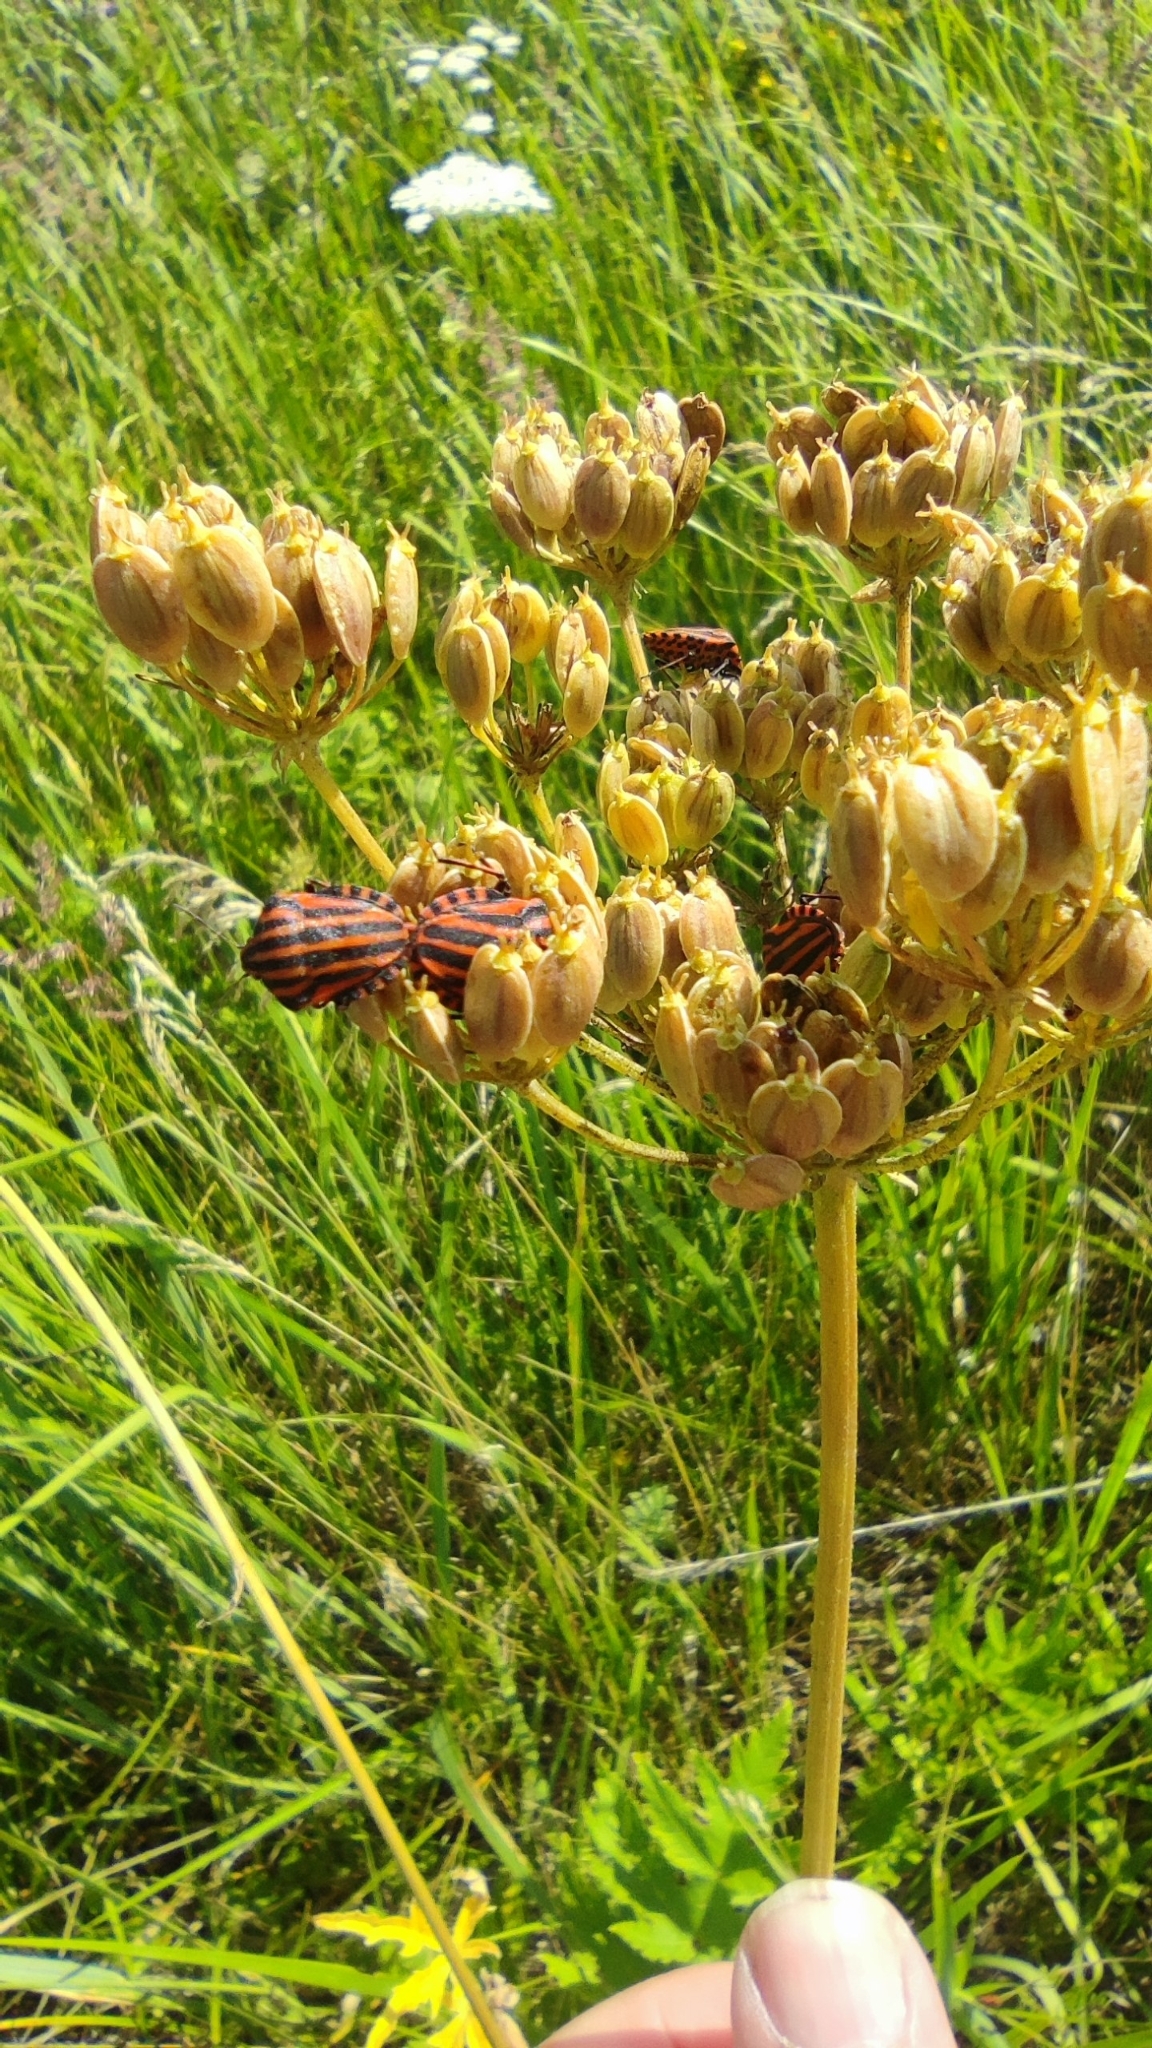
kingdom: Animalia
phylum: Arthropoda
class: Insecta
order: Hemiptera
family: Pentatomidae
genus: Graphosoma
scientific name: Graphosoma italicum
